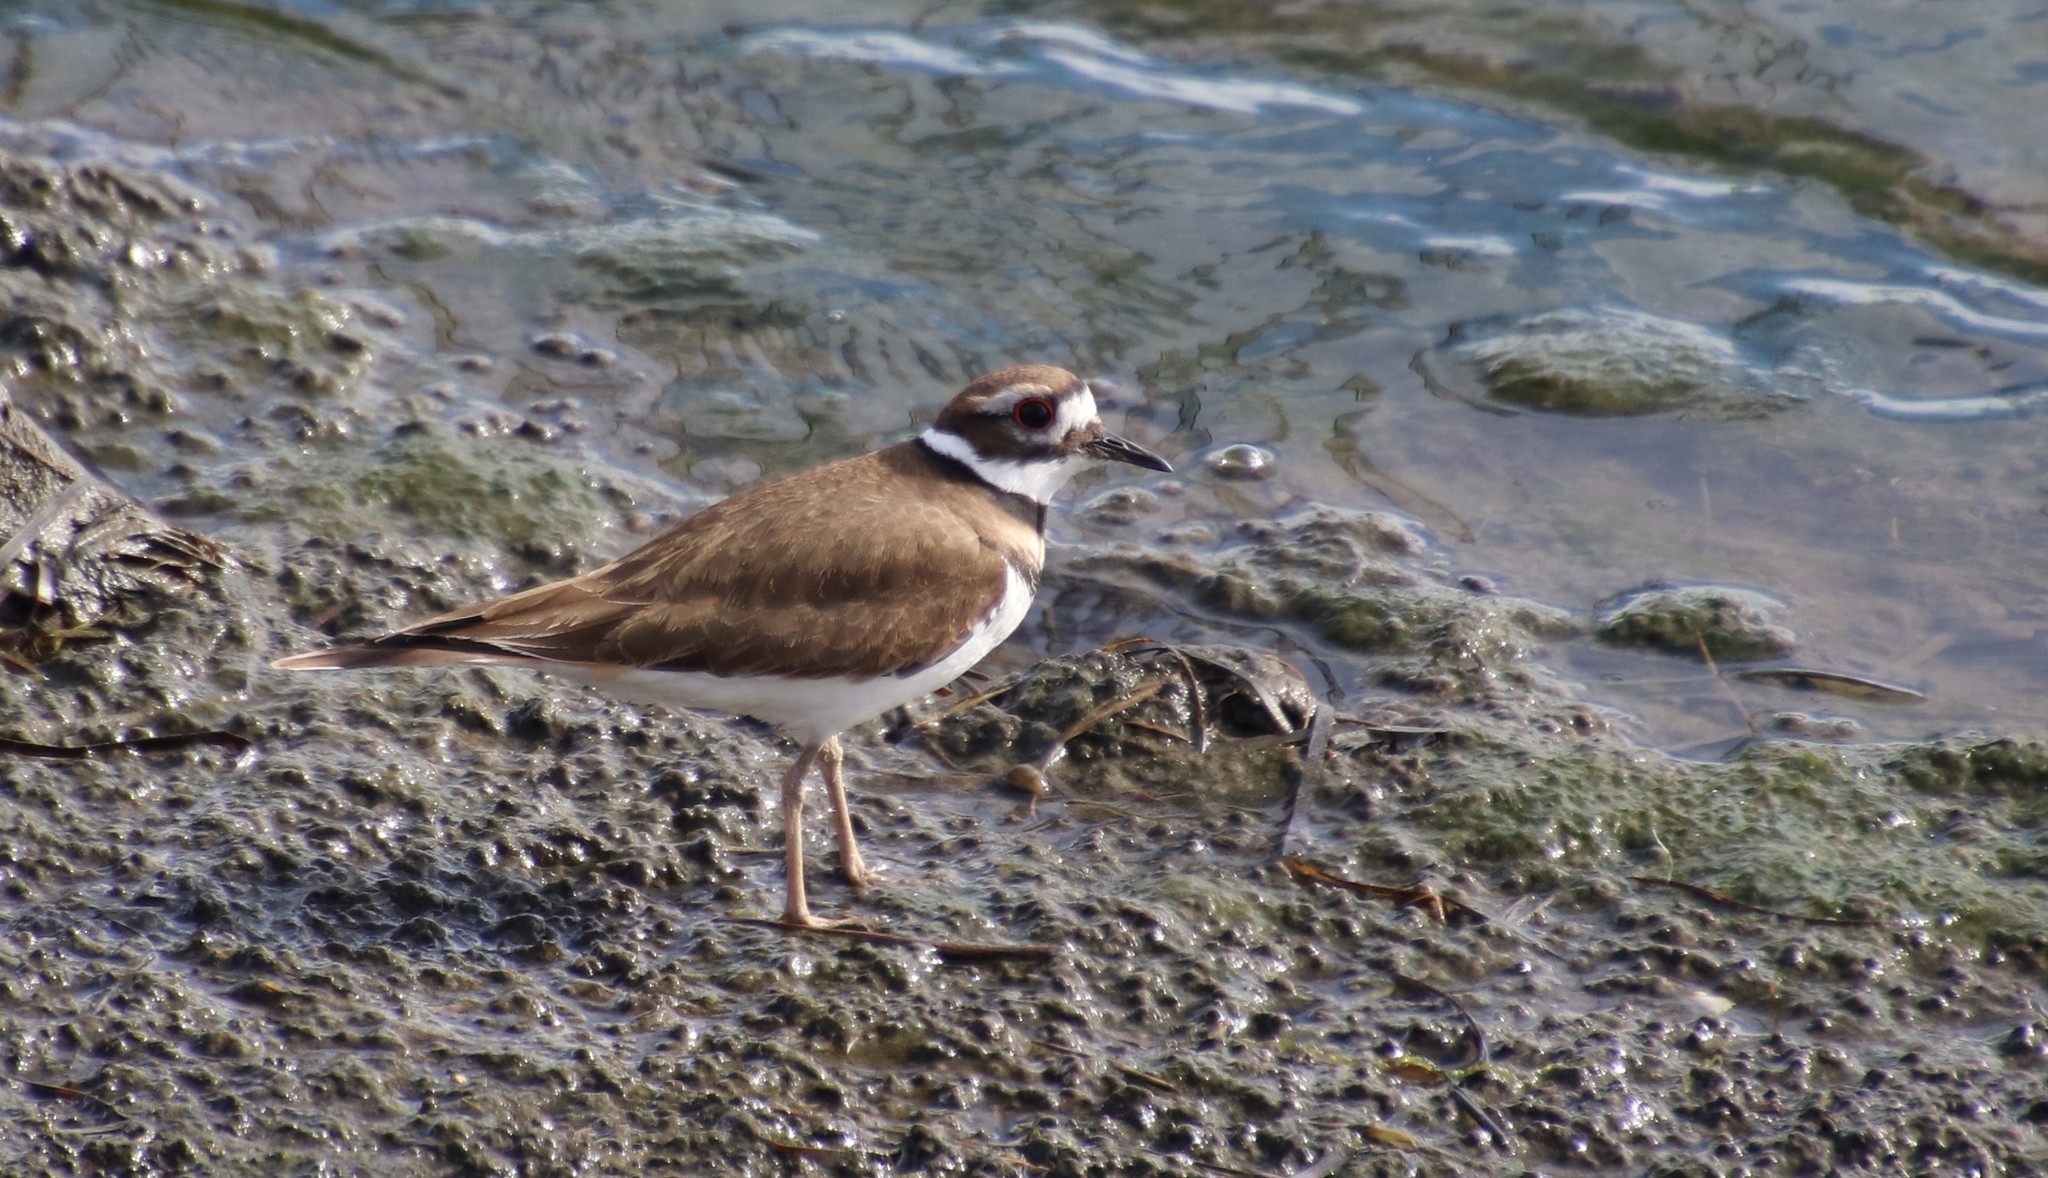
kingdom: Animalia
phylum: Chordata
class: Aves
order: Charadriiformes
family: Charadriidae
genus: Charadrius
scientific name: Charadrius vociferus
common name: Killdeer
